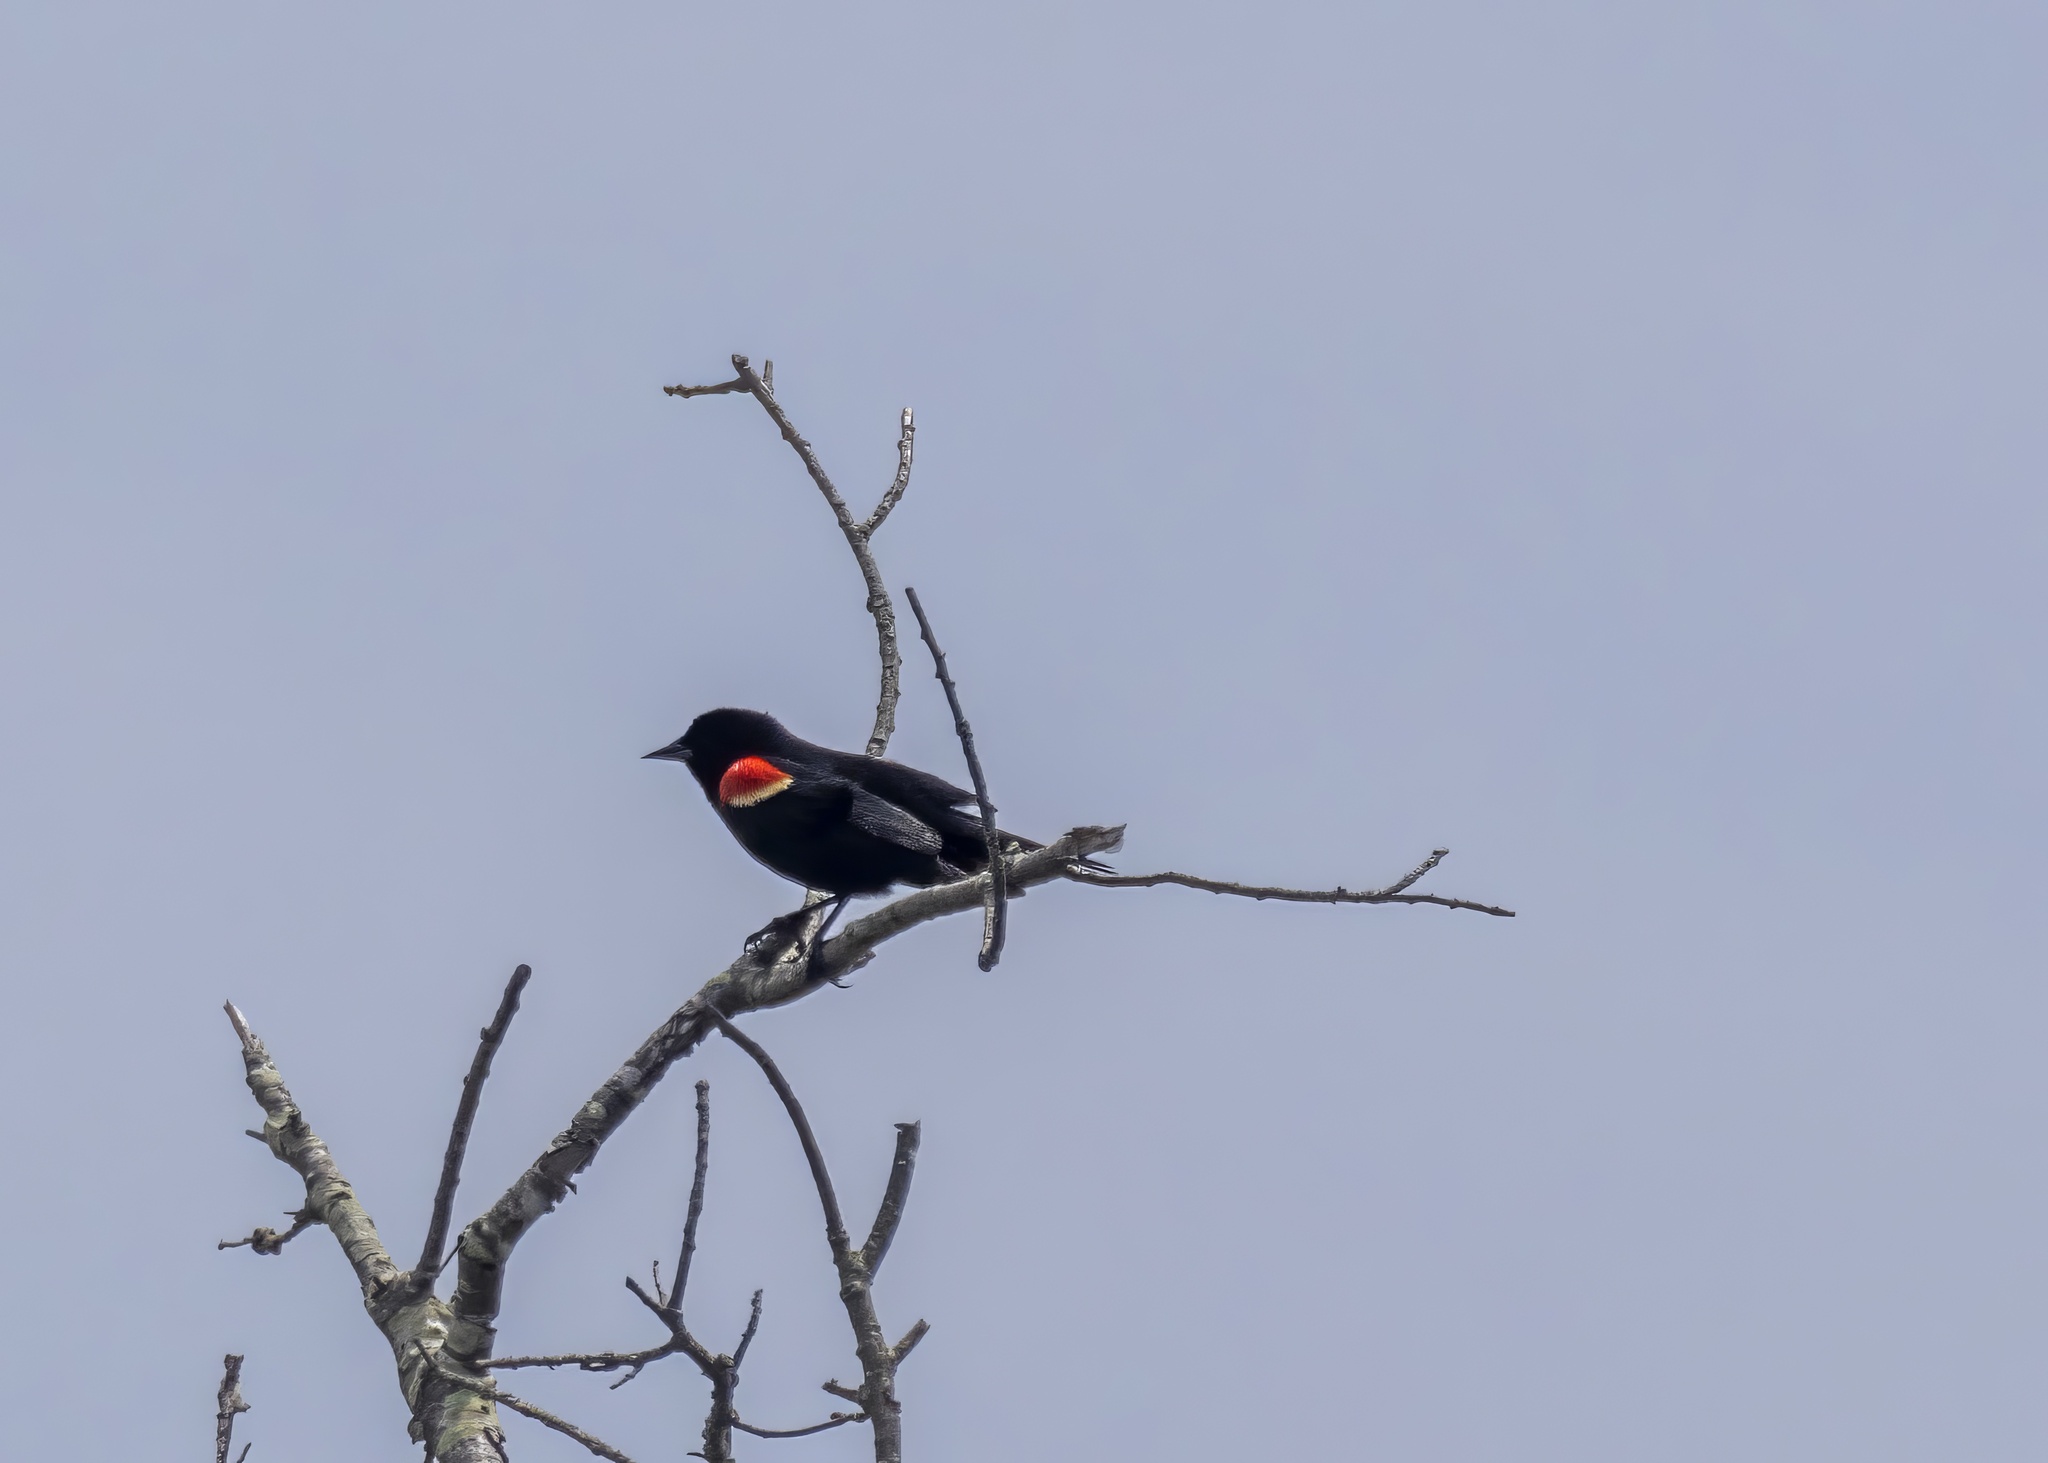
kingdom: Animalia
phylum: Chordata
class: Aves
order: Passeriformes
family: Icteridae
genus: Agelaius
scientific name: Agelaius phoeniceus
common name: Red-winged blackbird
